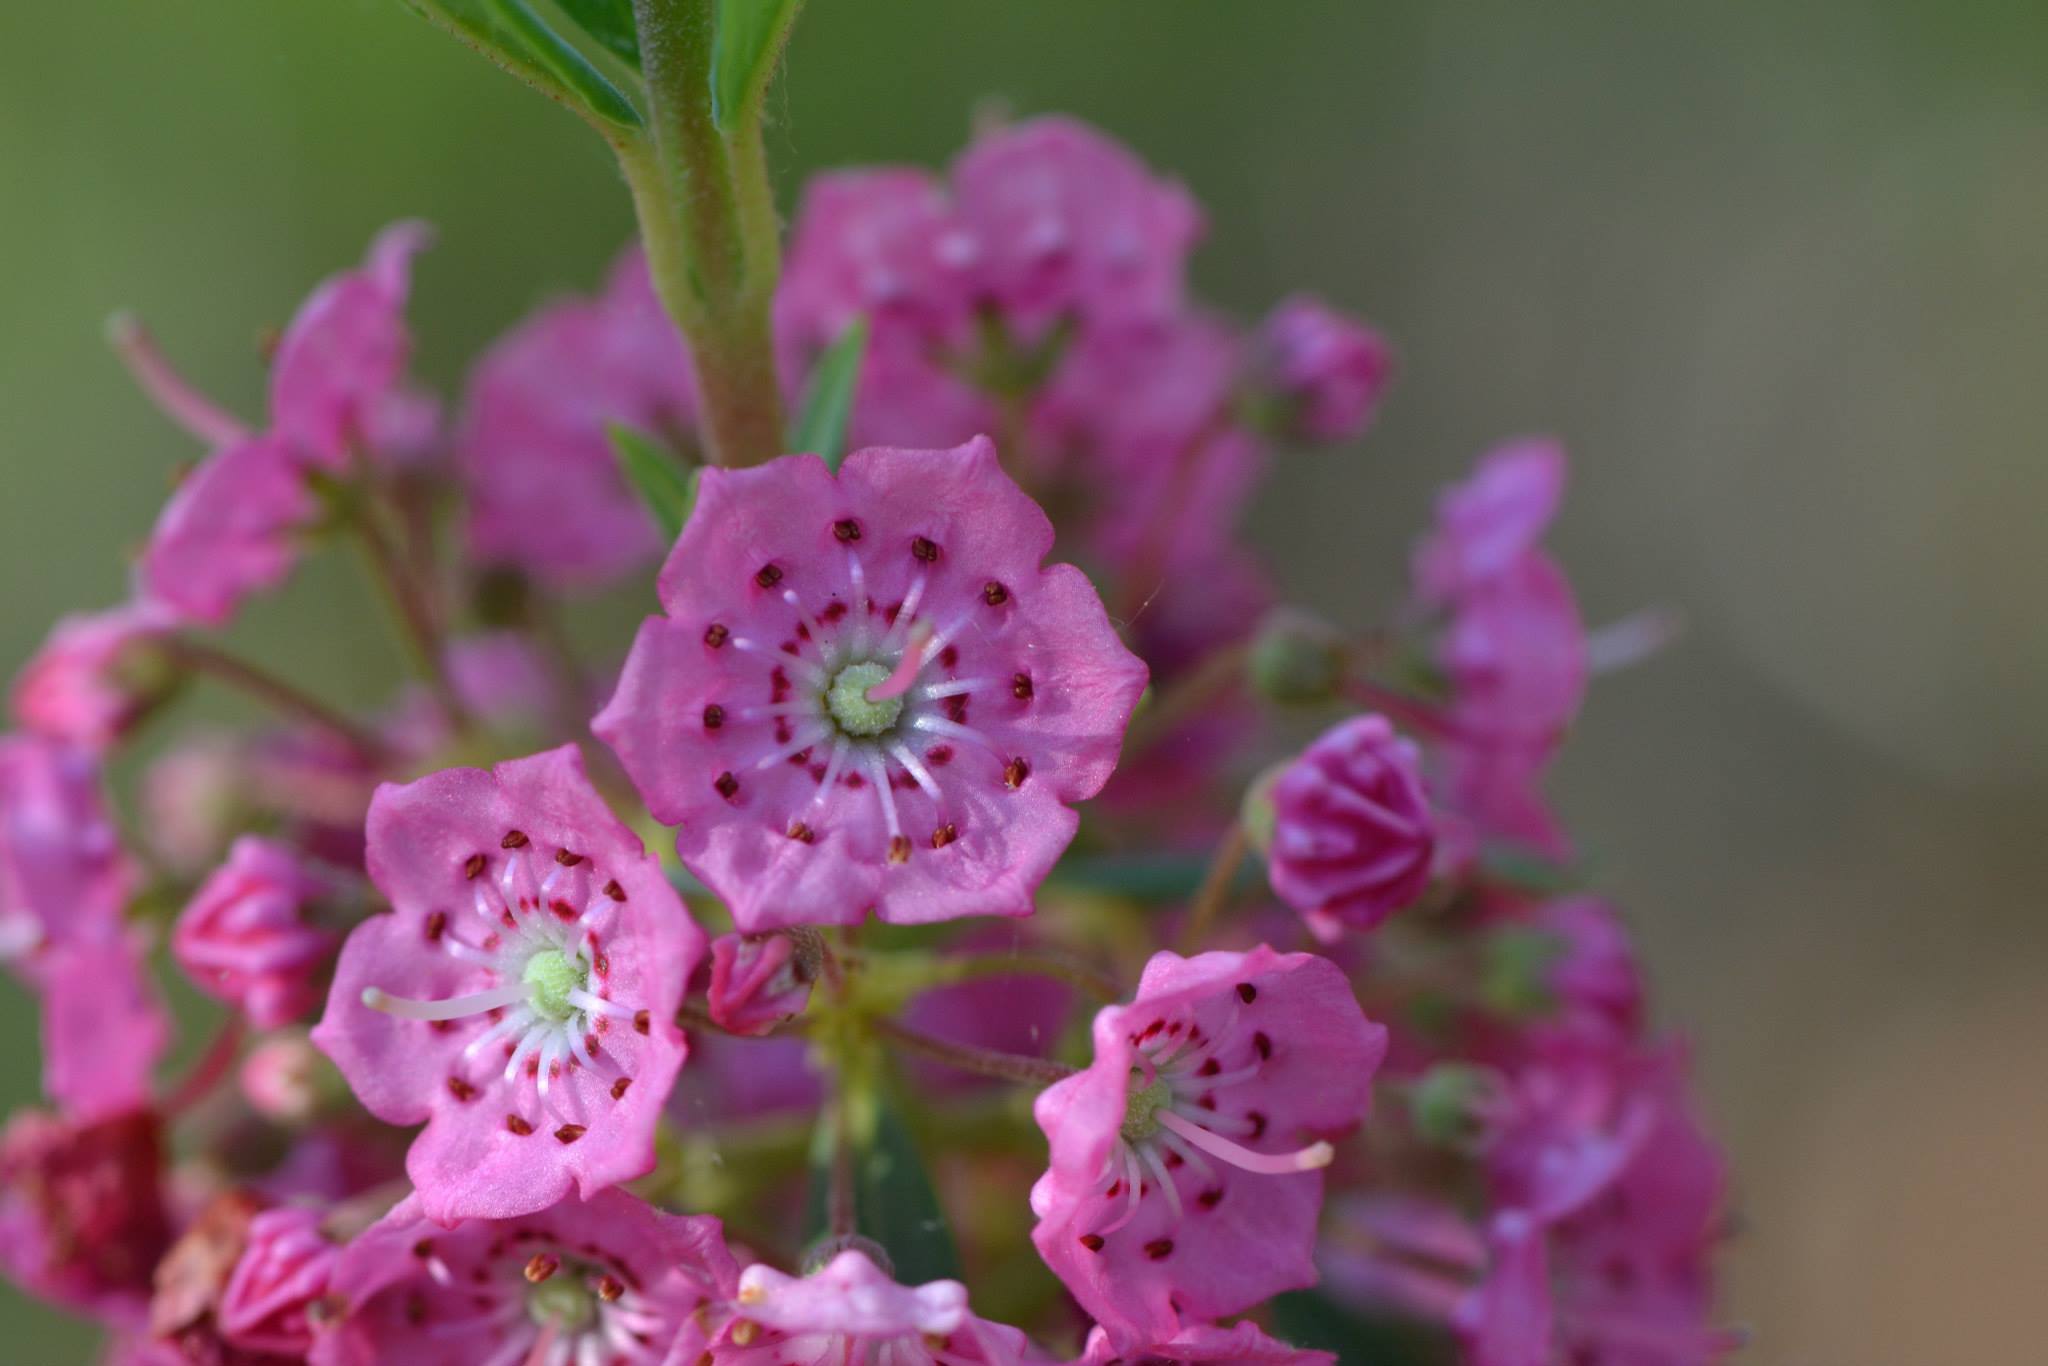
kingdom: Plantae
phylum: Tracheophyta
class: Magnoliopsida
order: Ericales
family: Ericaceae
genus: Kalmia
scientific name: Kalmia angustifolia
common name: Sheep-laurel
